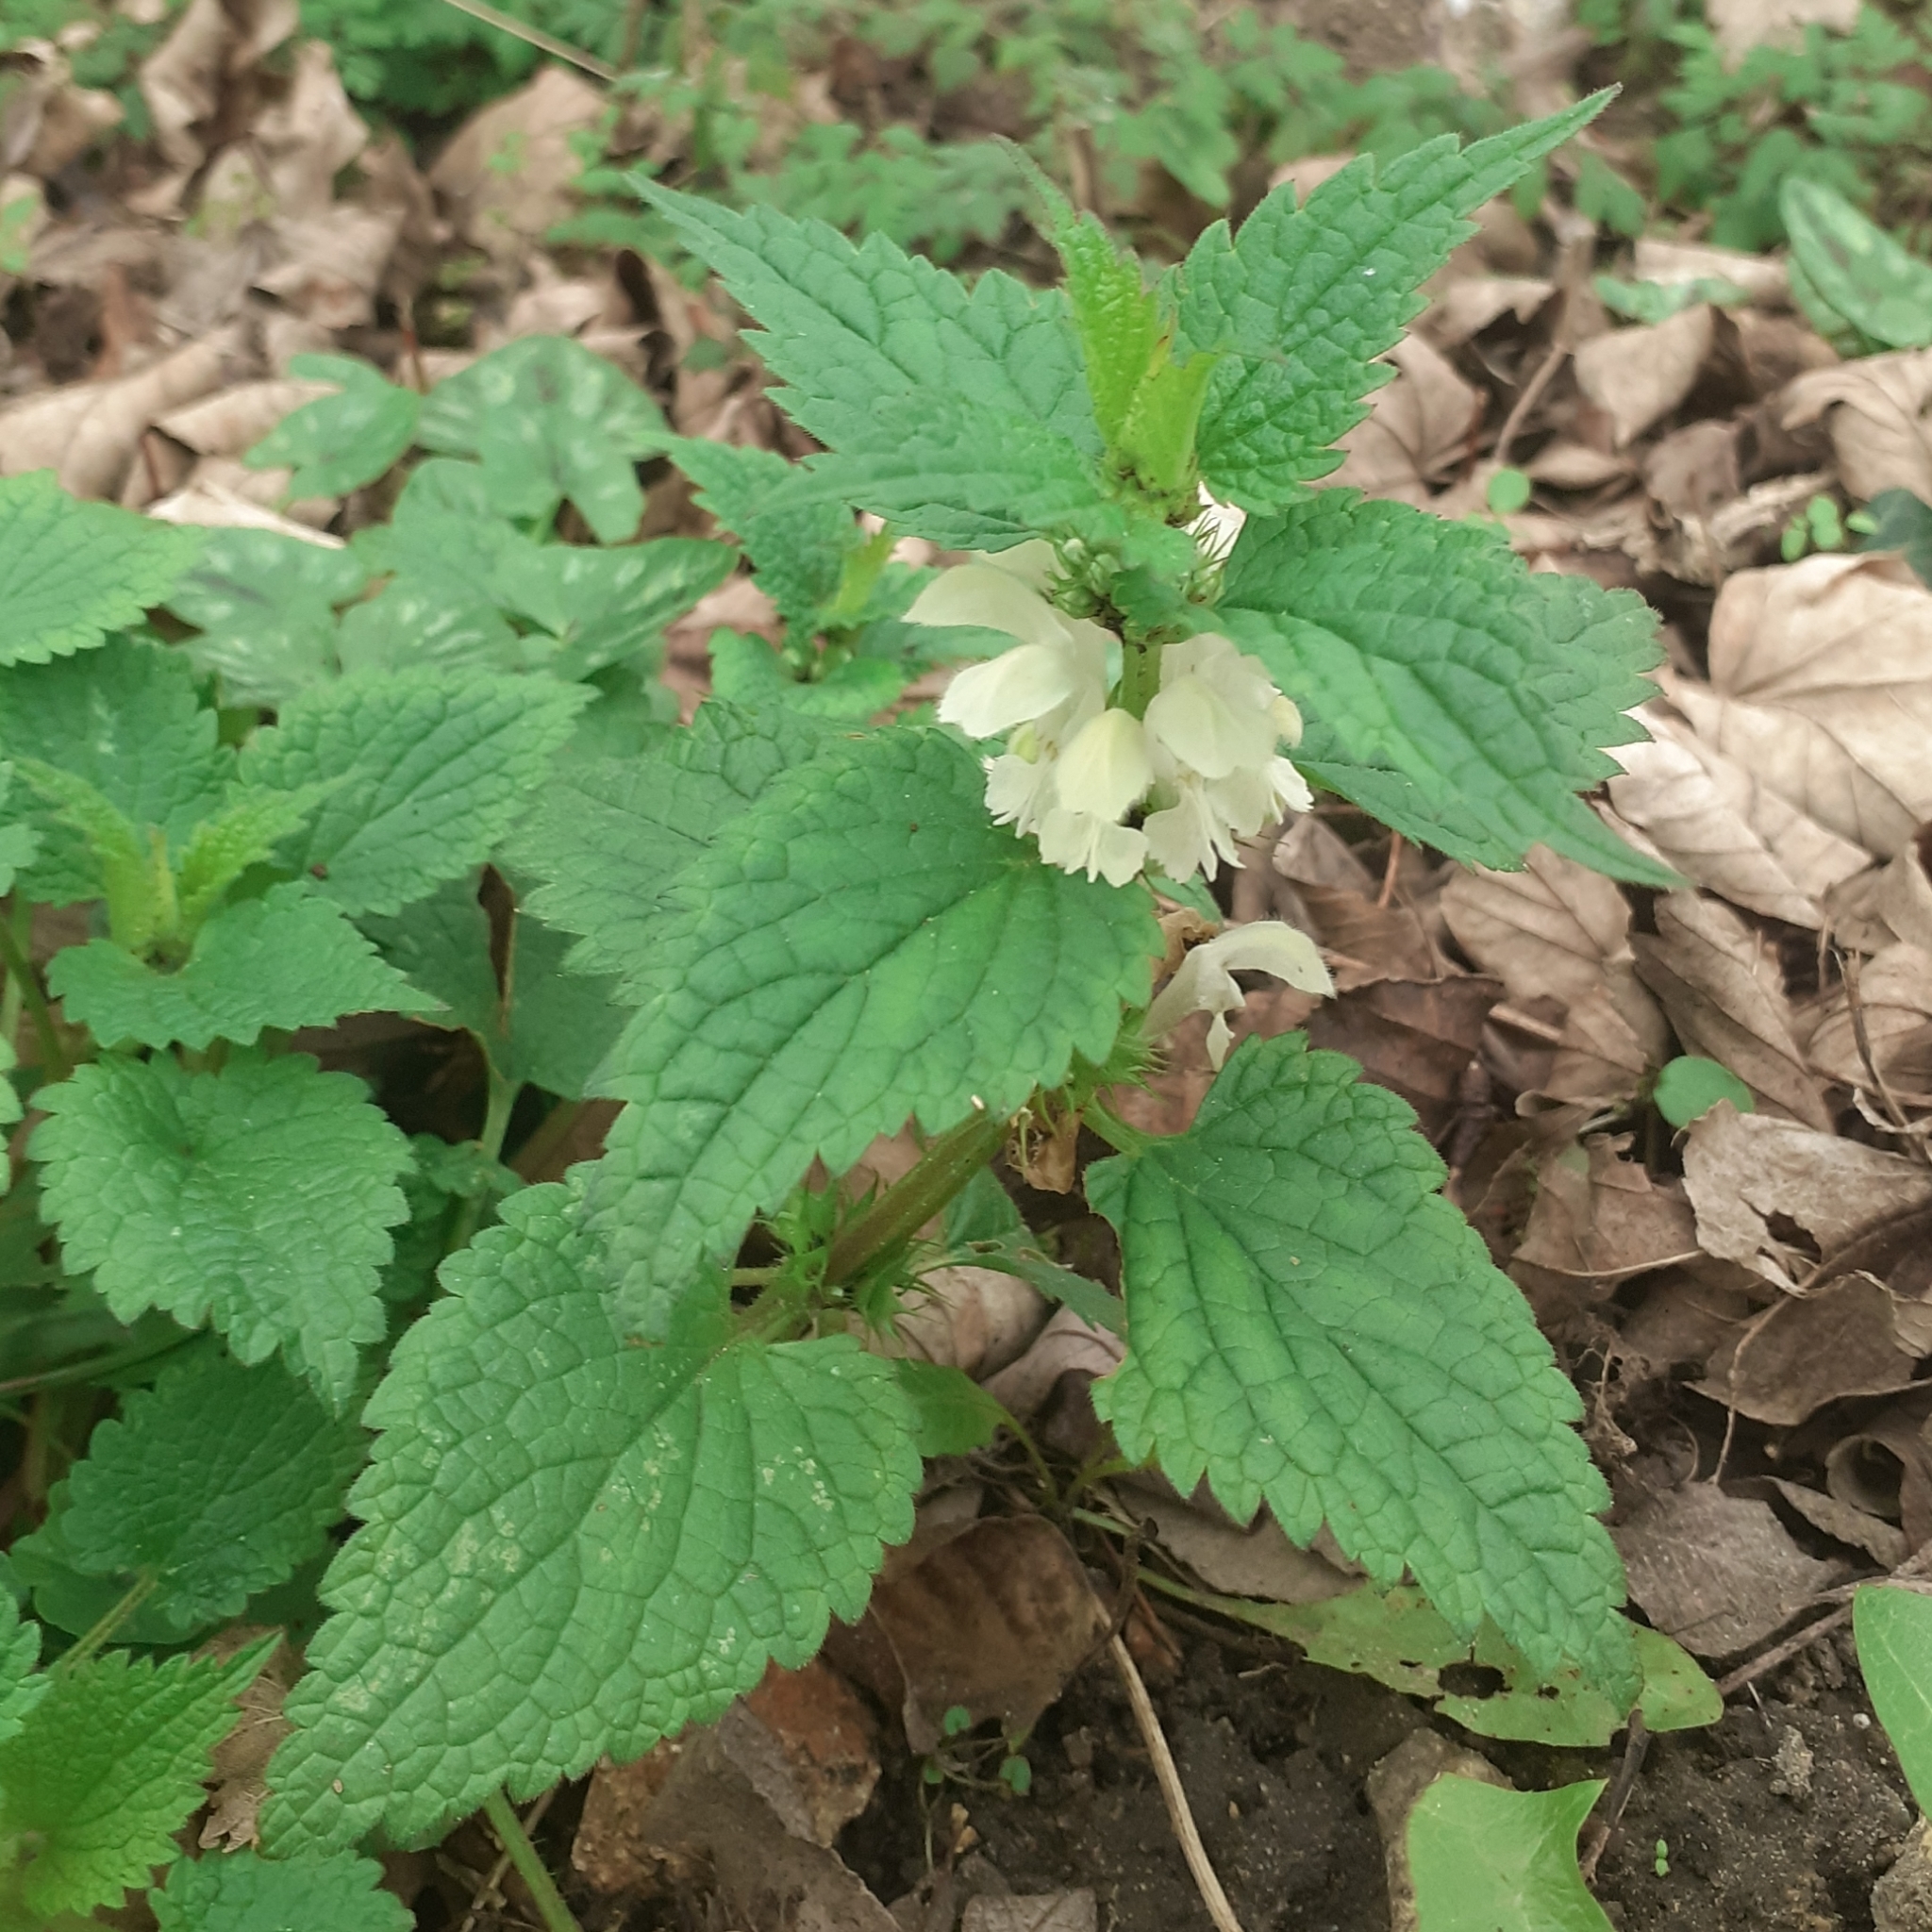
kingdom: Plantae
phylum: Tracheophyta
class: Magnoliopsida
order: Lamiales
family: Lamiaceae
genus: Lamium
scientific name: Lamium album
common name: White dead-nettle
